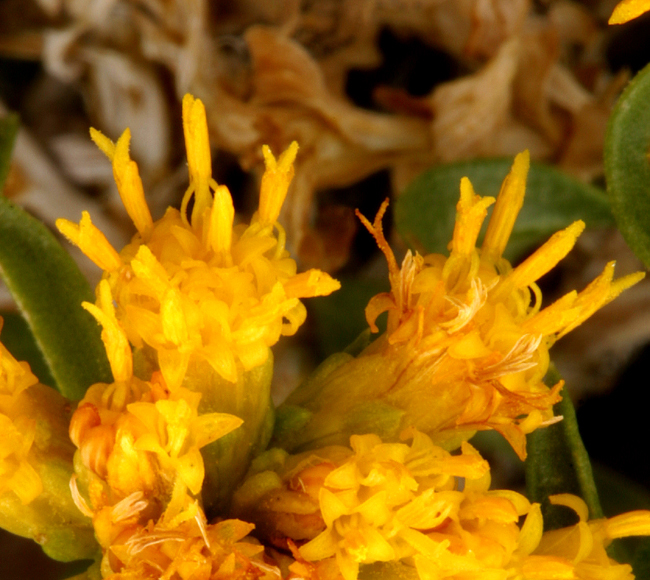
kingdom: Plantae
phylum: Tracheophyta
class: Magnoliopsida
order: Asterales
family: Asteraceae
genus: Chrysothamnus
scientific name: Chrysothamnus viscidiflorus
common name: Yellow rabbitbrush
